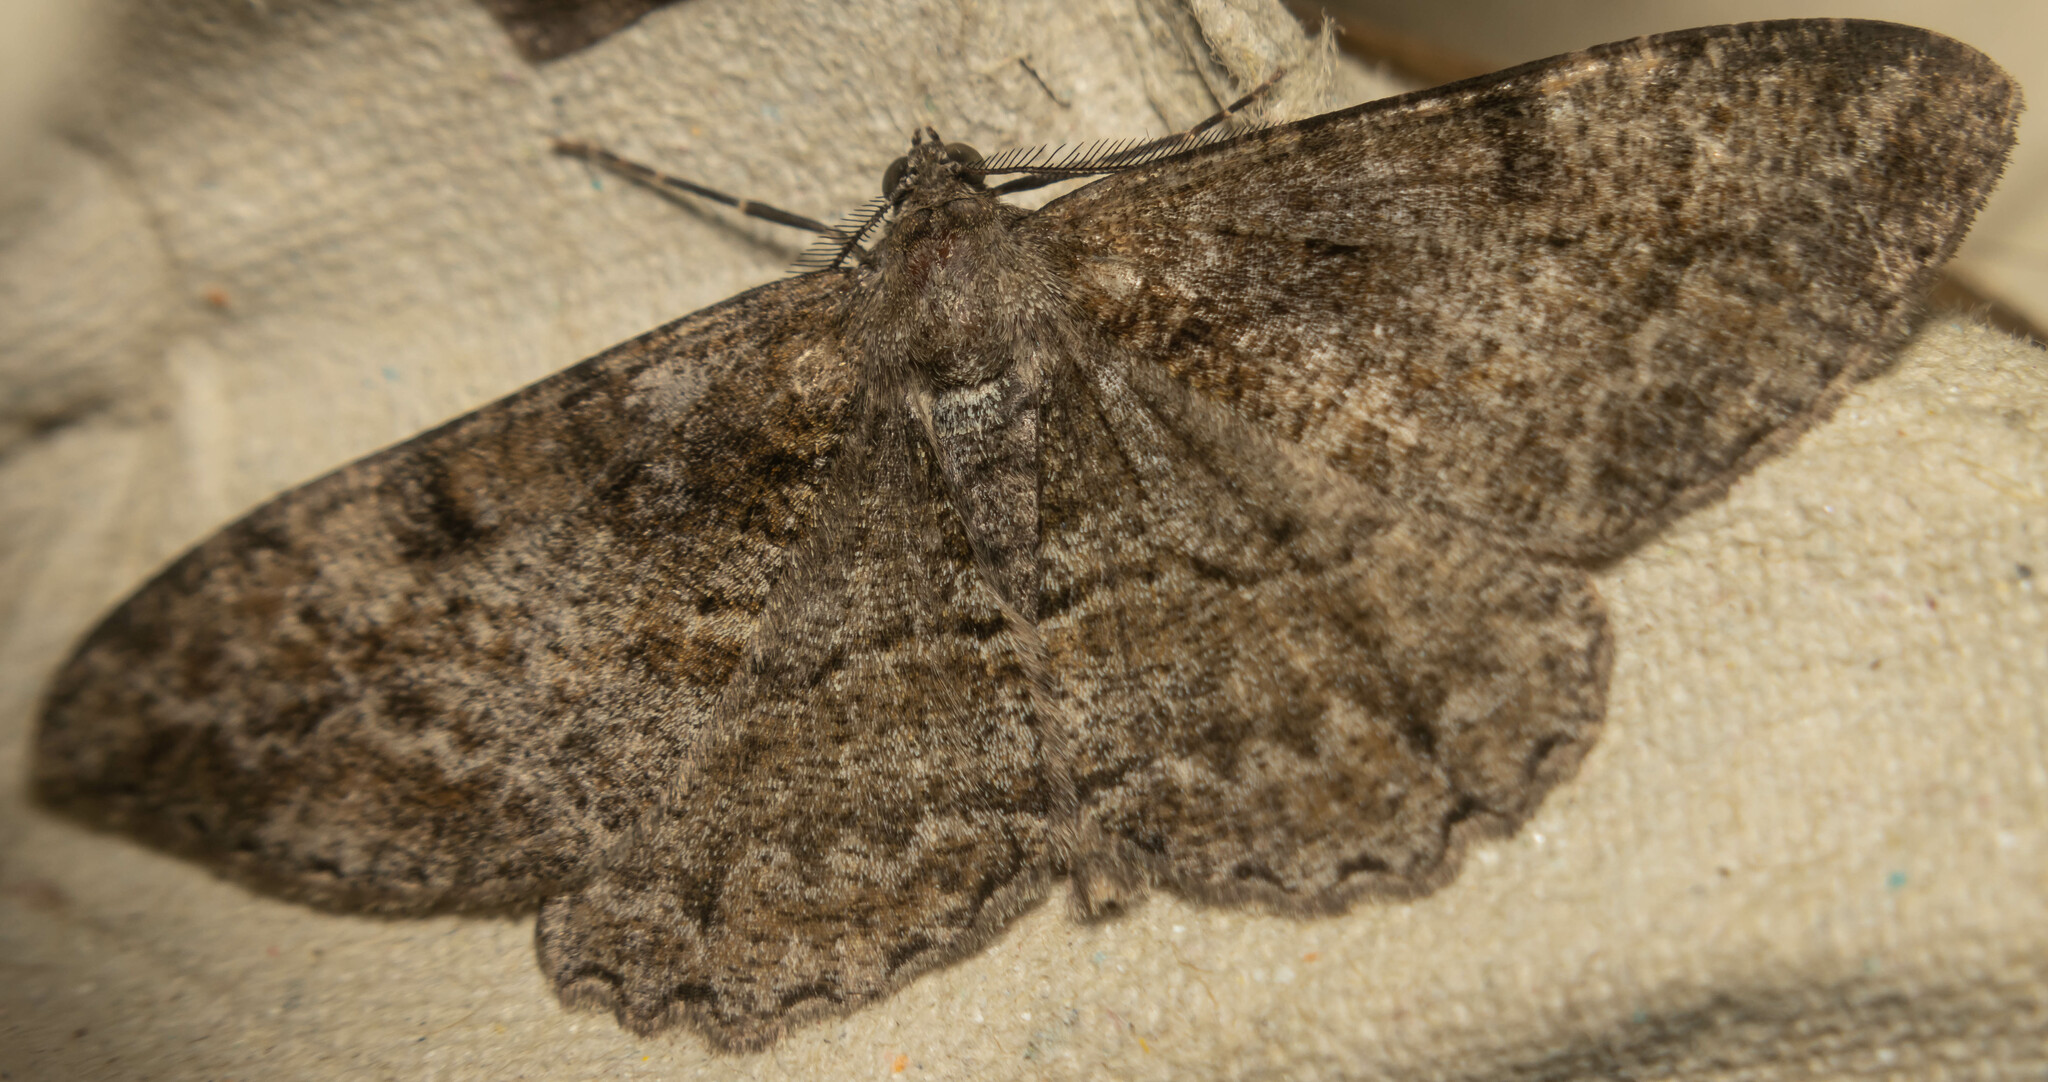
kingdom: Animalia
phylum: Arthropoda
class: Insecta
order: Lepidoptera
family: Geometridae
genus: Alcis
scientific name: Alcis repandata
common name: Mottled beauty
